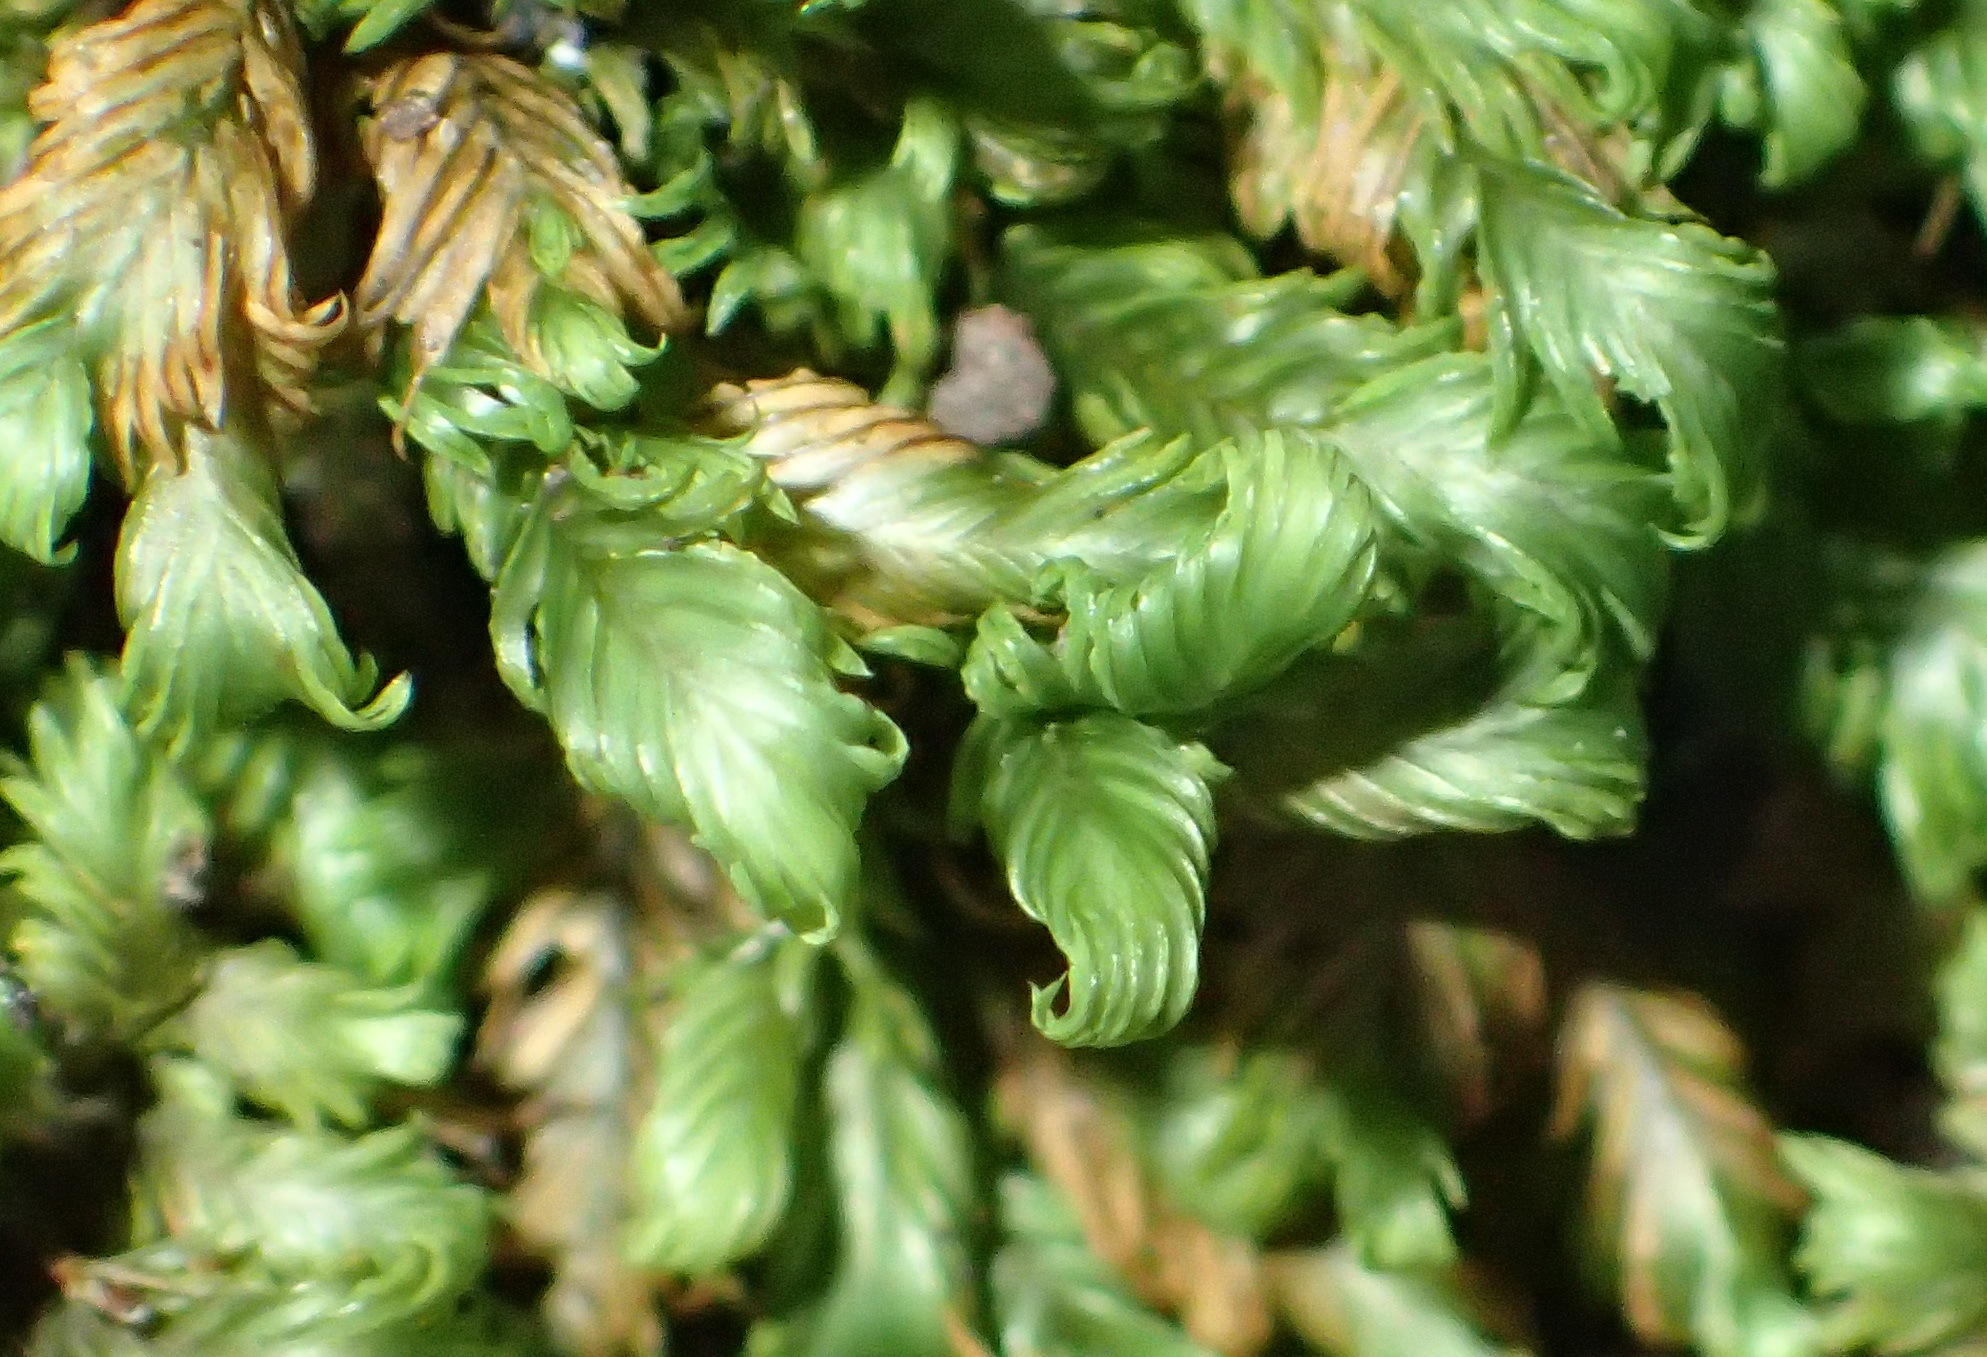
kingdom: Plantae
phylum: Bryophyta
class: Bryopsida
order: Dicranales
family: Fissidentaceae
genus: Fissidens
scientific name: Fissidens ovatus
